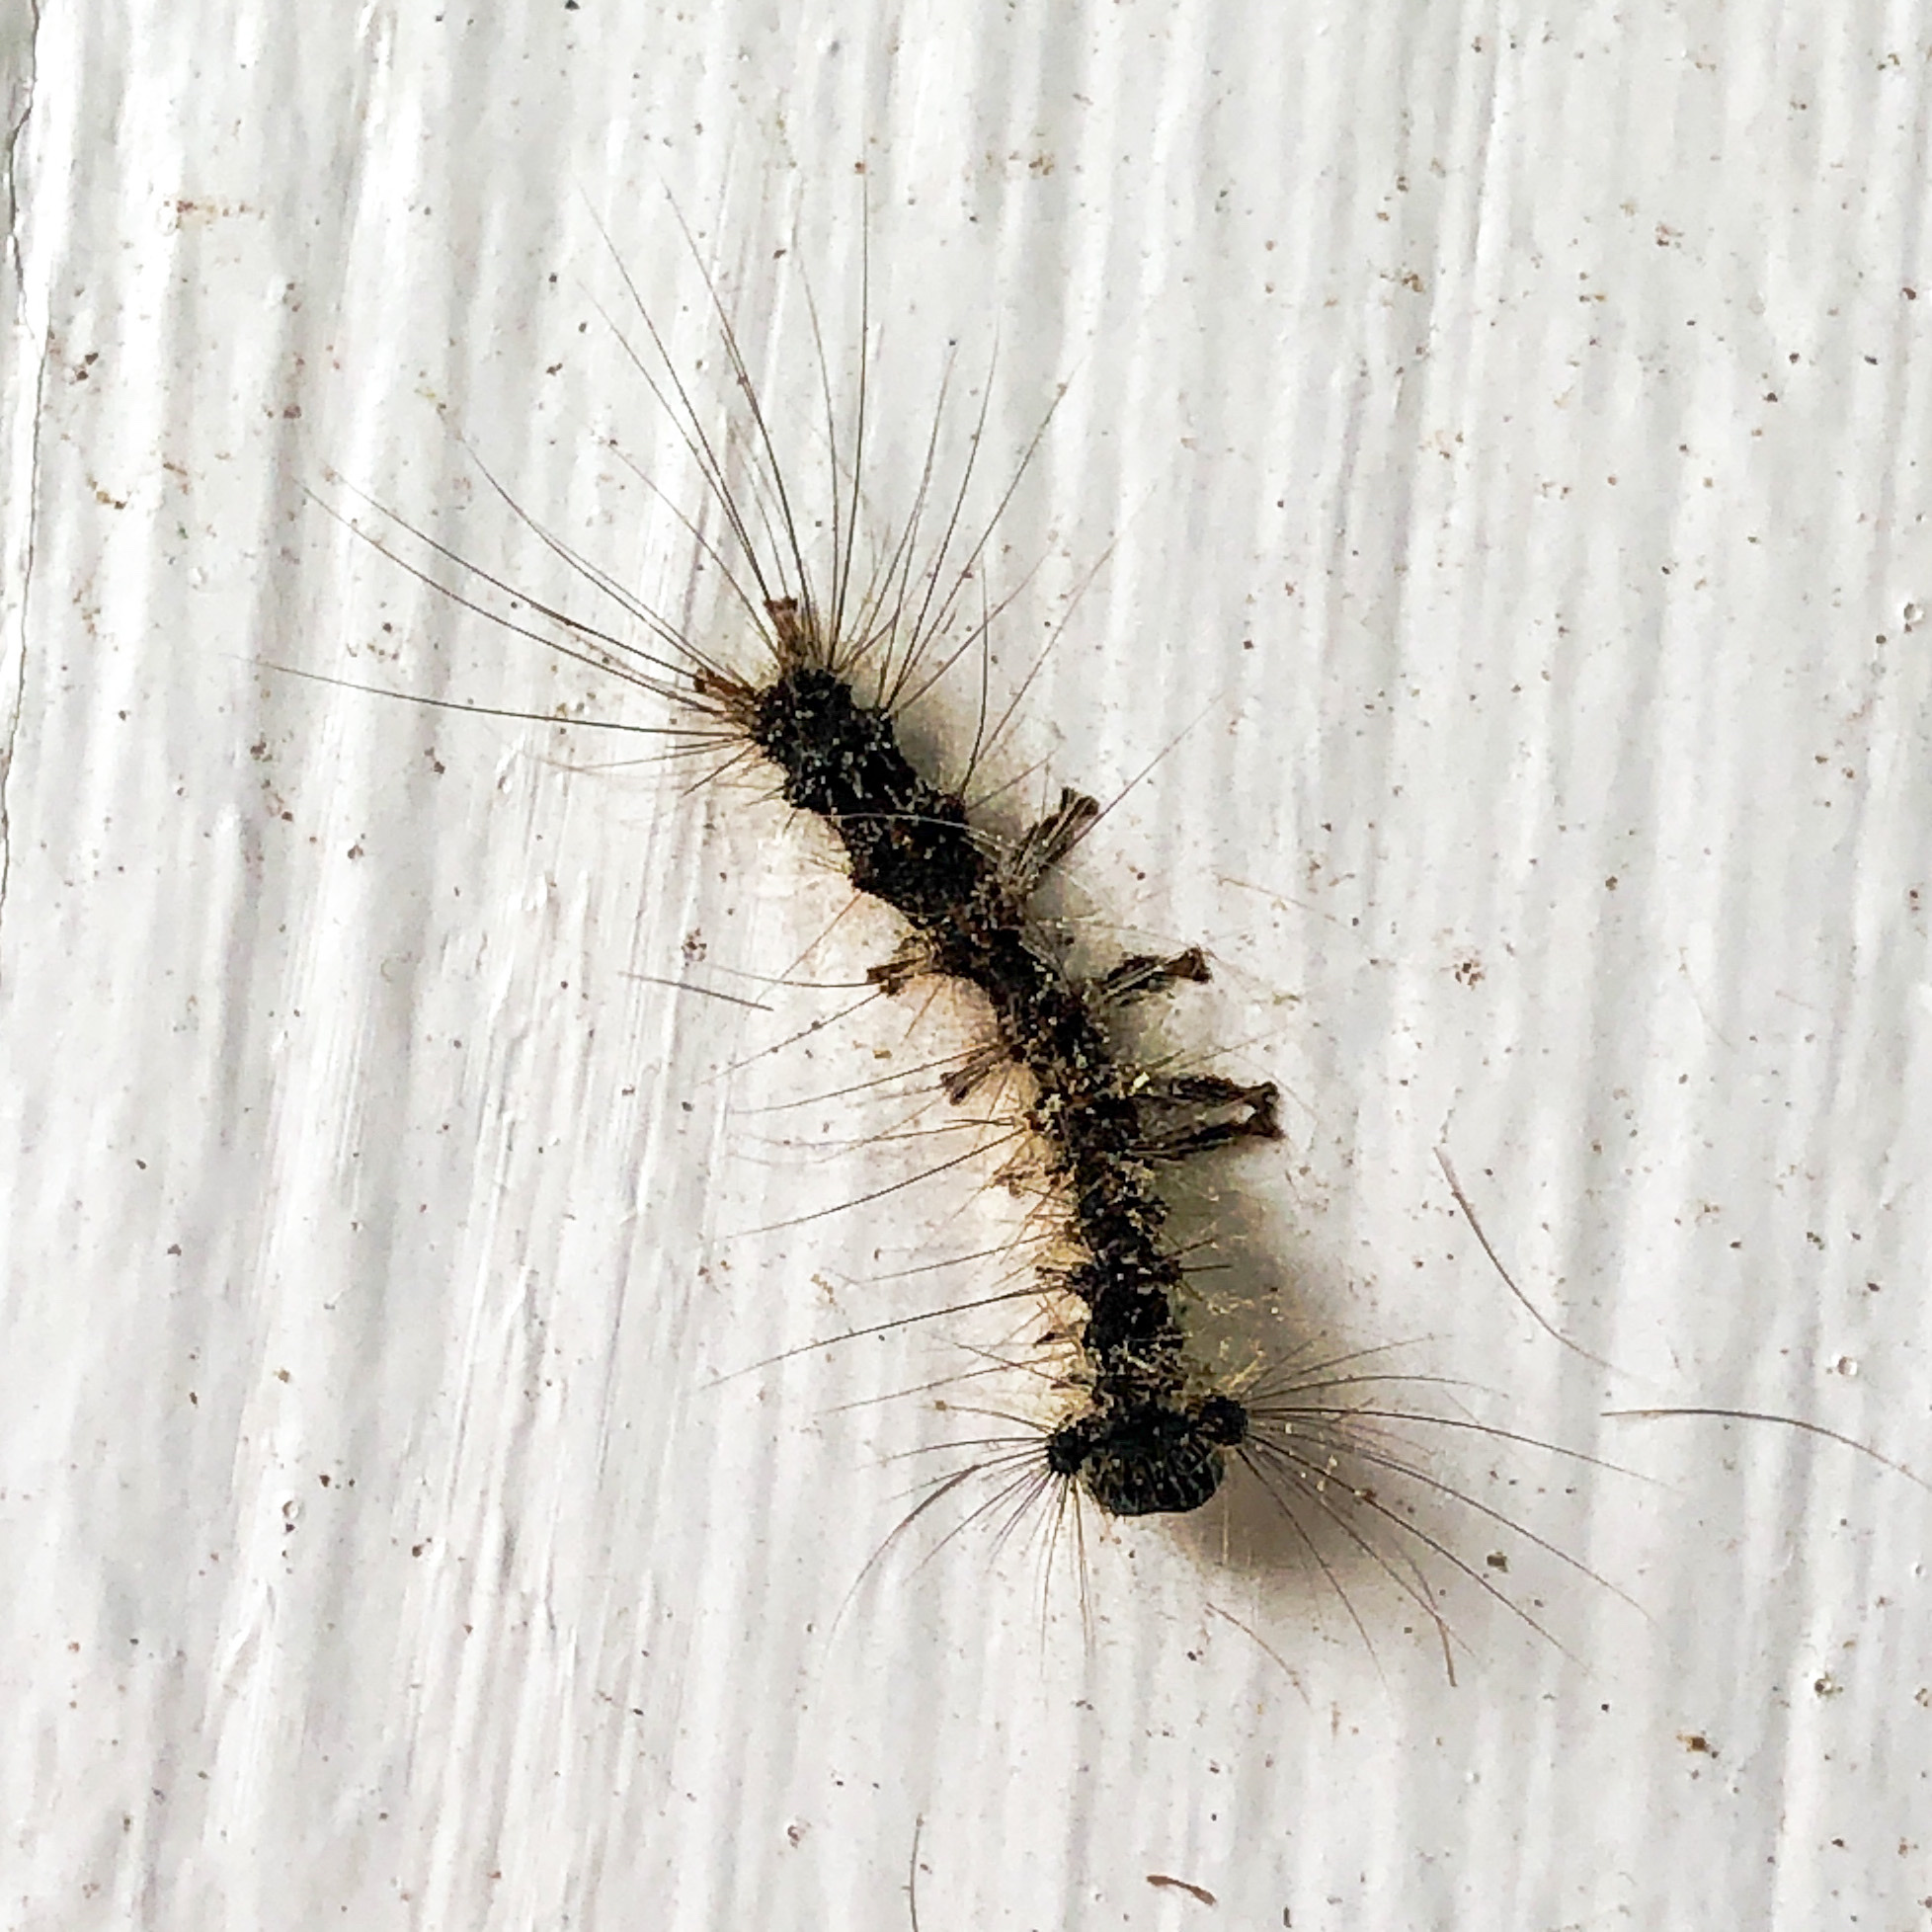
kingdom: Animalia
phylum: Arthropoda
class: Insecta
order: Lepidoptera
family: Erebidae
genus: Lymantria
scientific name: Lymantria dispar
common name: Gypsy moth
